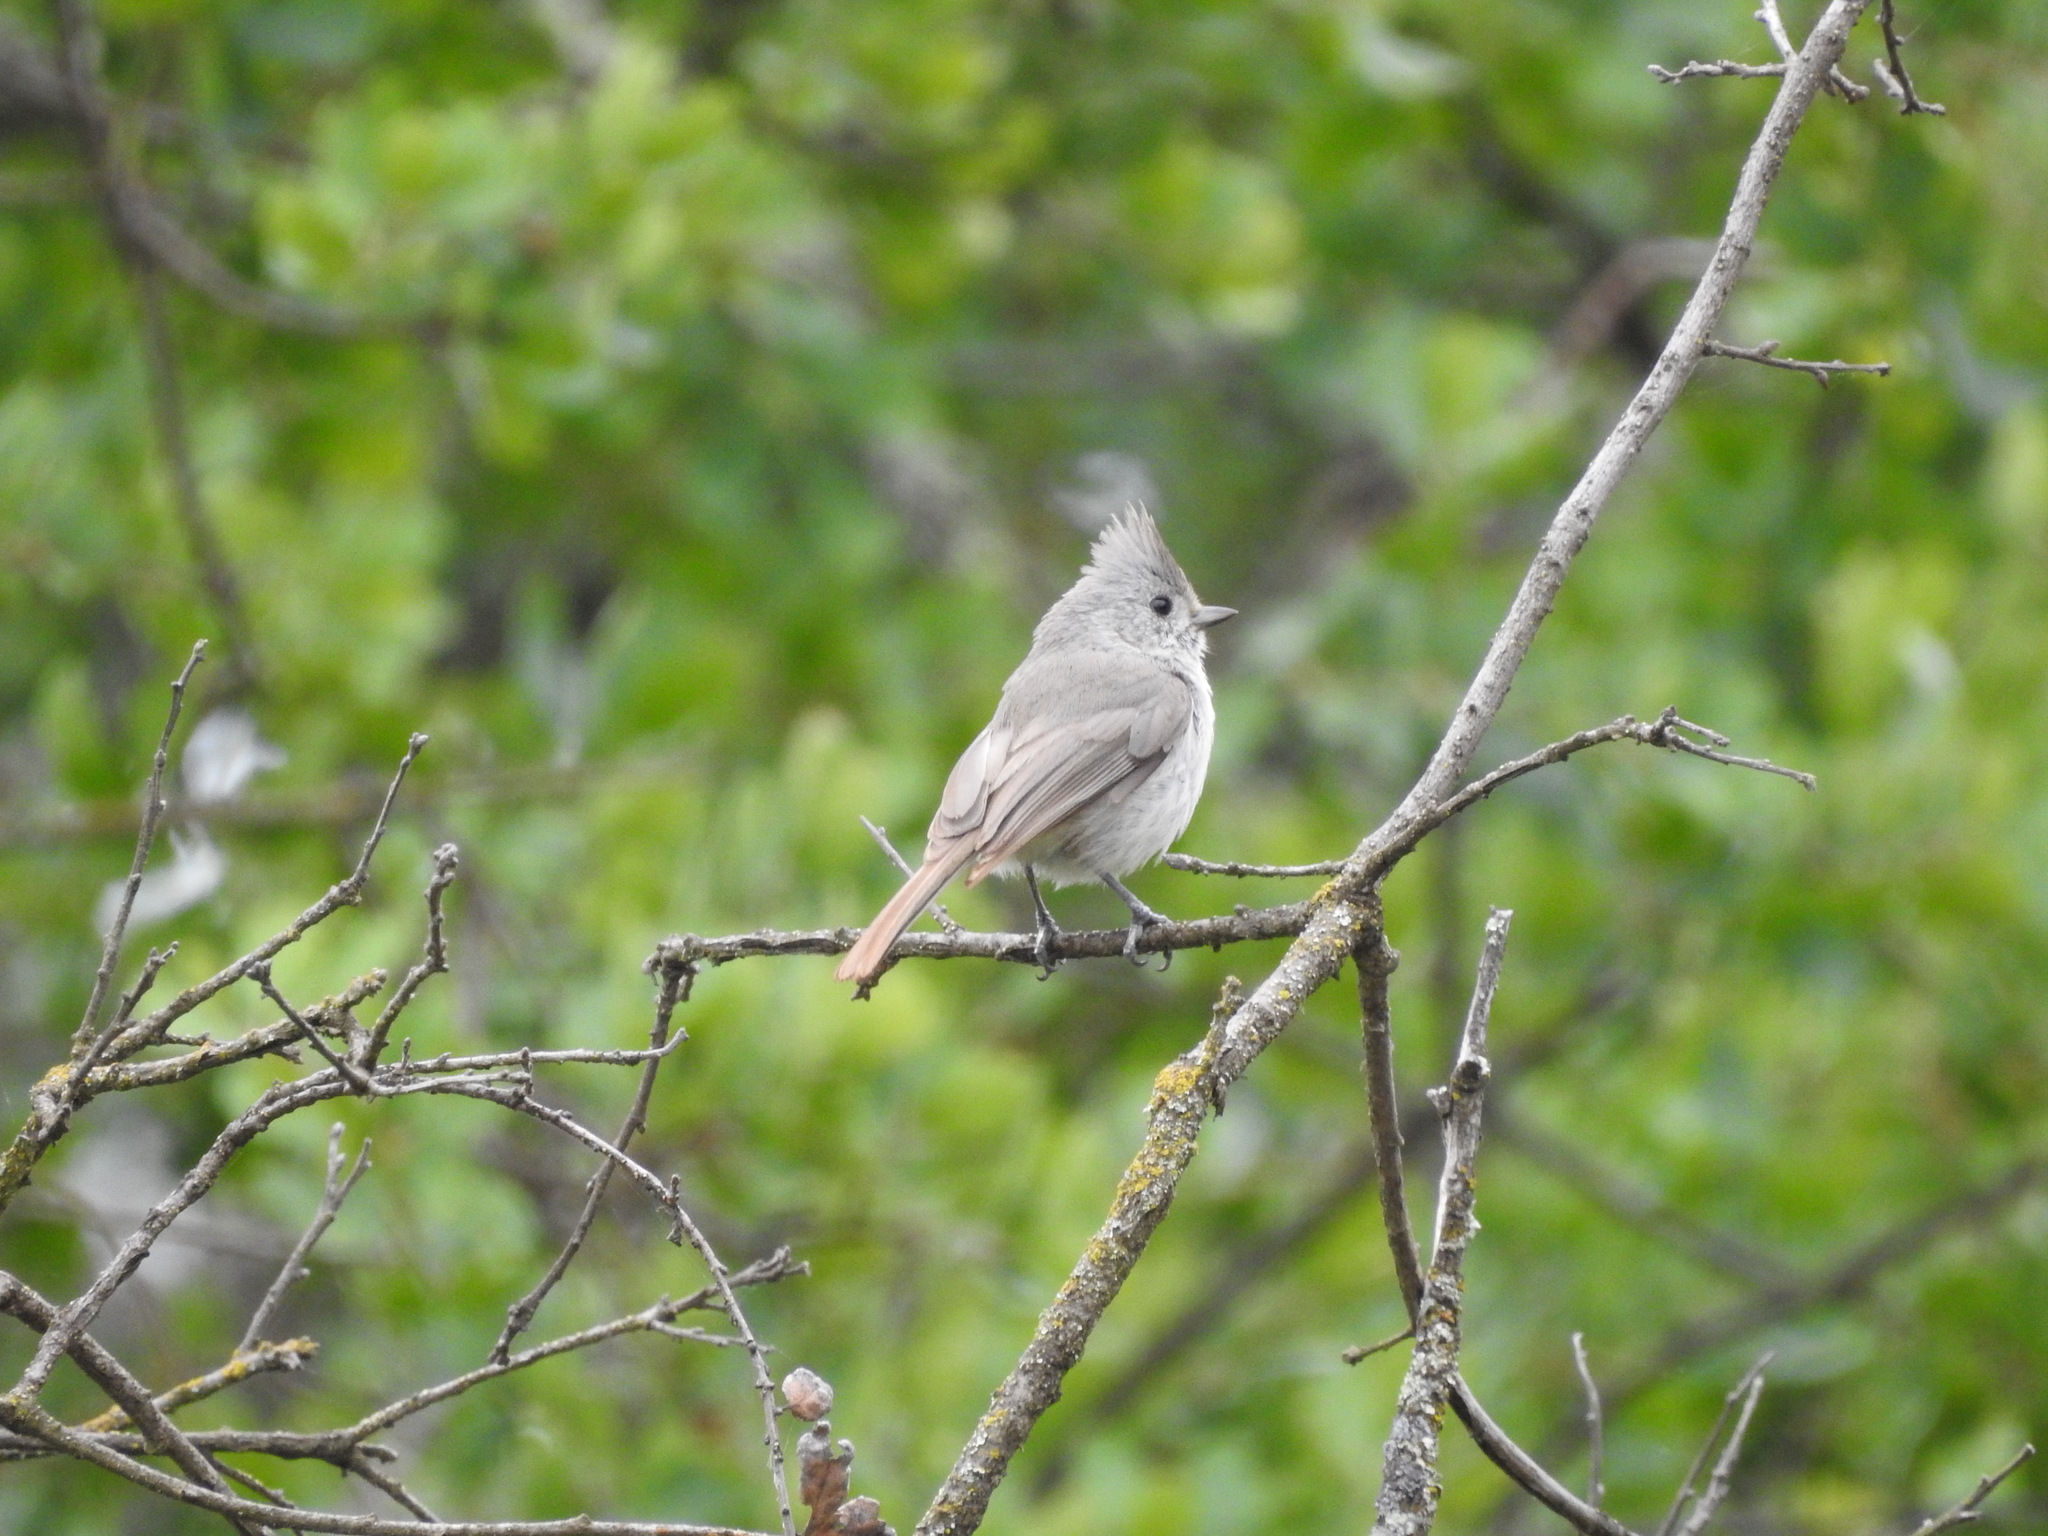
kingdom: Animalia
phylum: Chordata
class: Aves
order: Passeriformes
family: Paridae
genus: Baeolophus
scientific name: Baeolophus inornatus
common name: Oak titmouse
